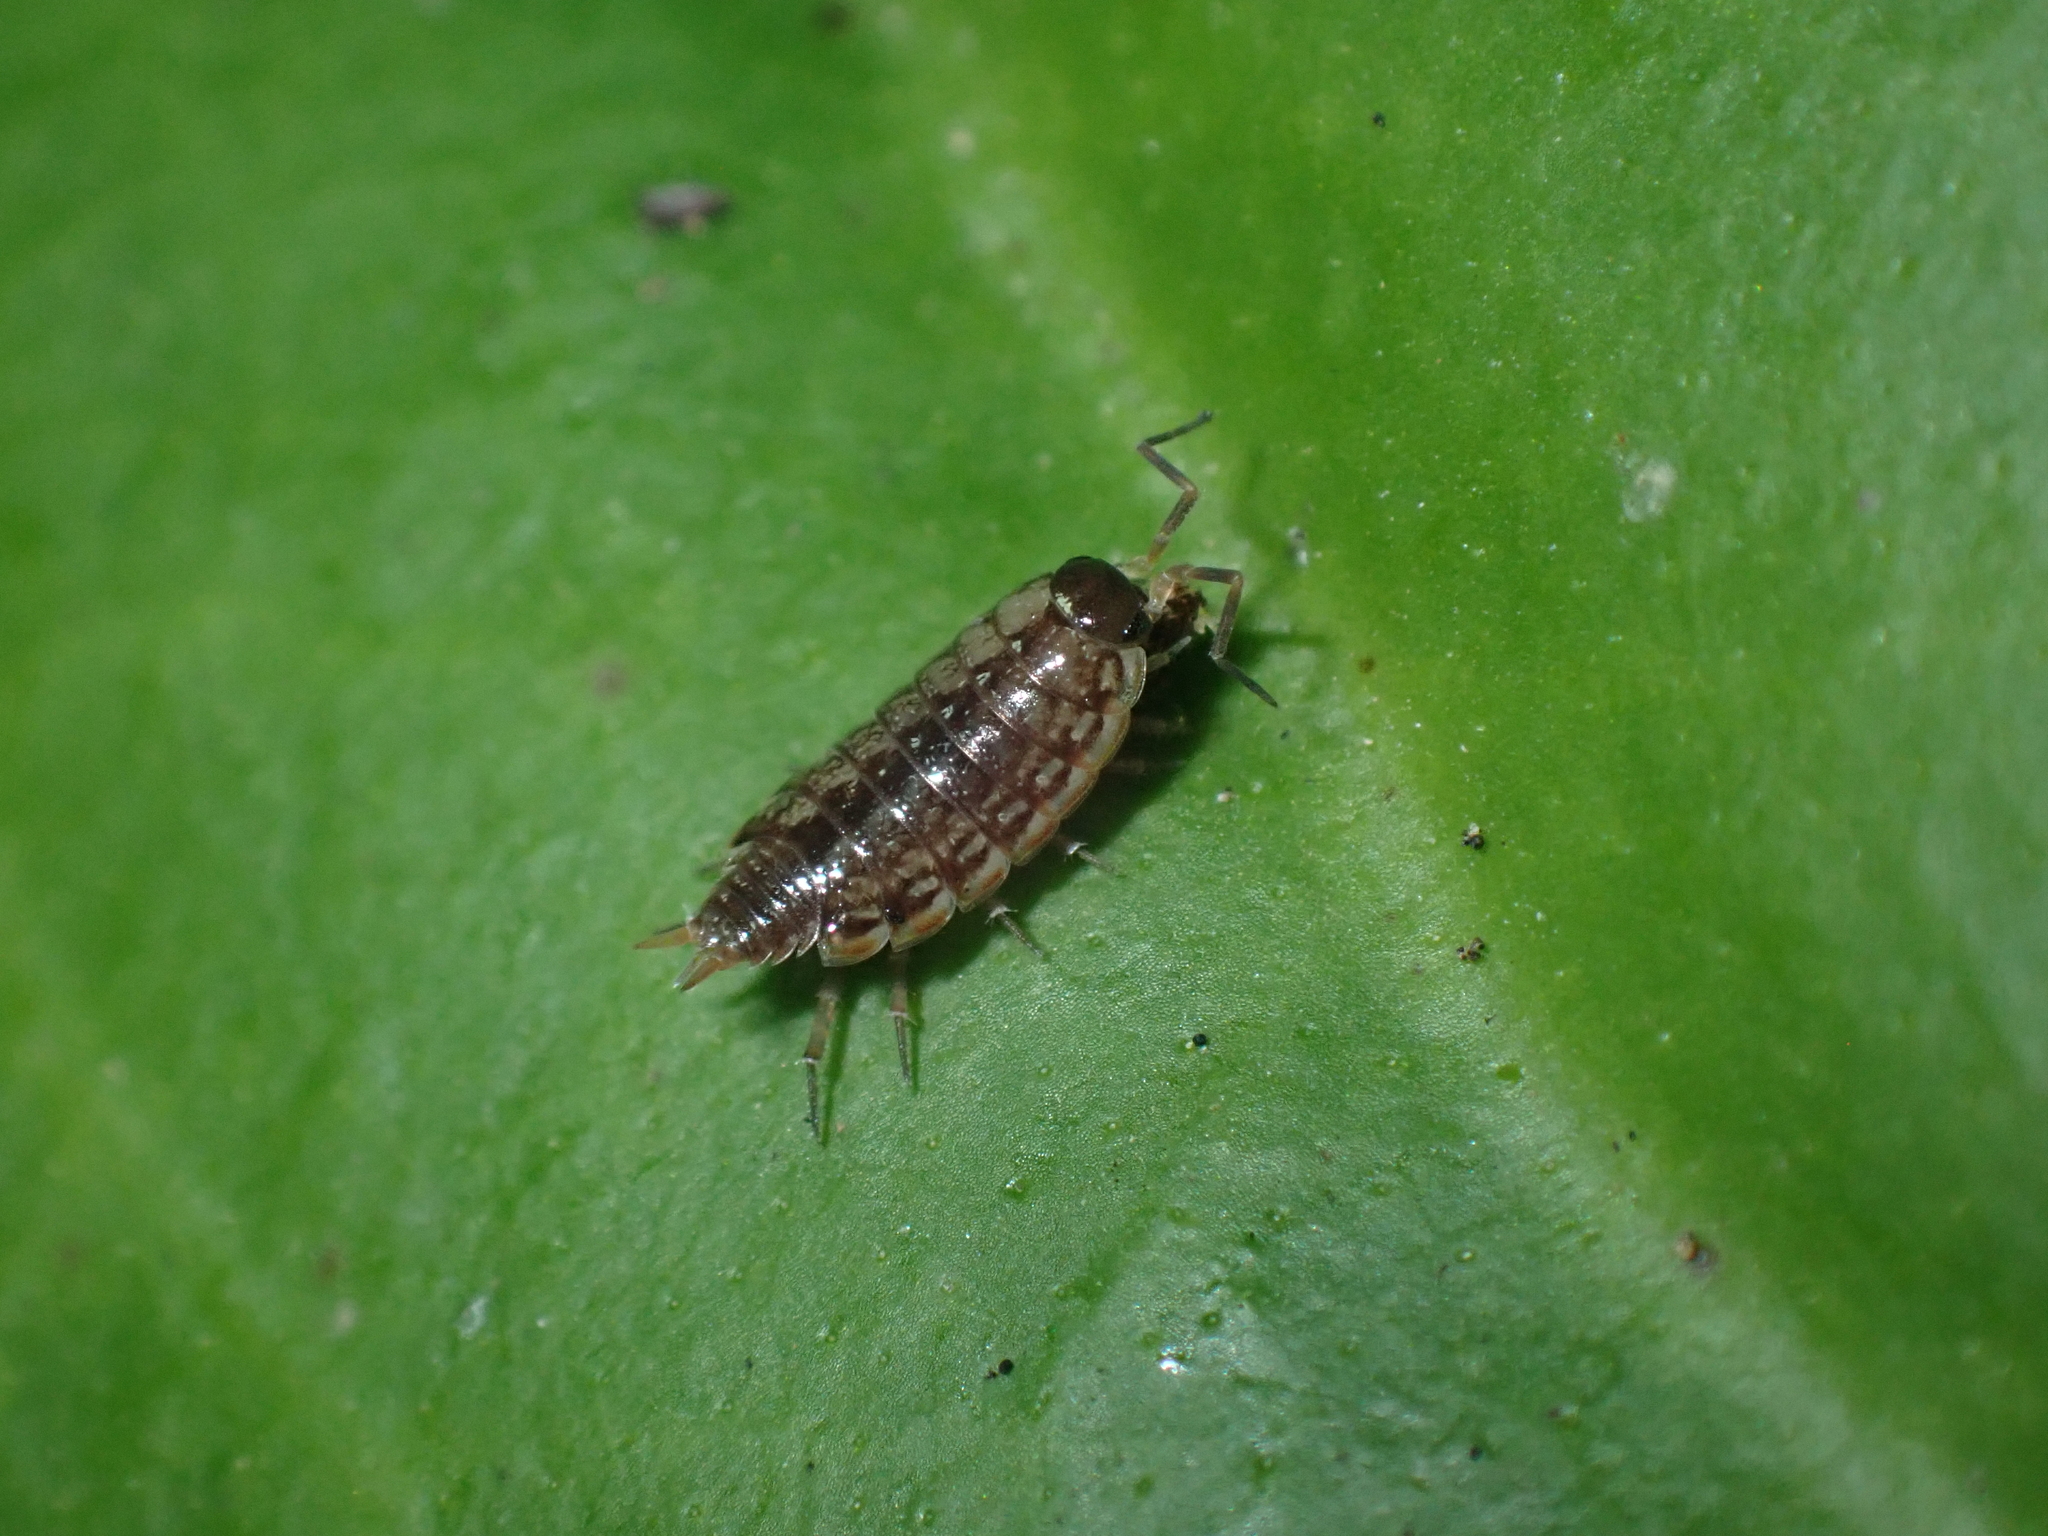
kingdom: Animalia
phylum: Arthropoda
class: Malacostraca
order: Isopoda
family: Philosciidae
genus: Philoscia
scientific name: Philoscia muscorum
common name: Common striped woodlouse
